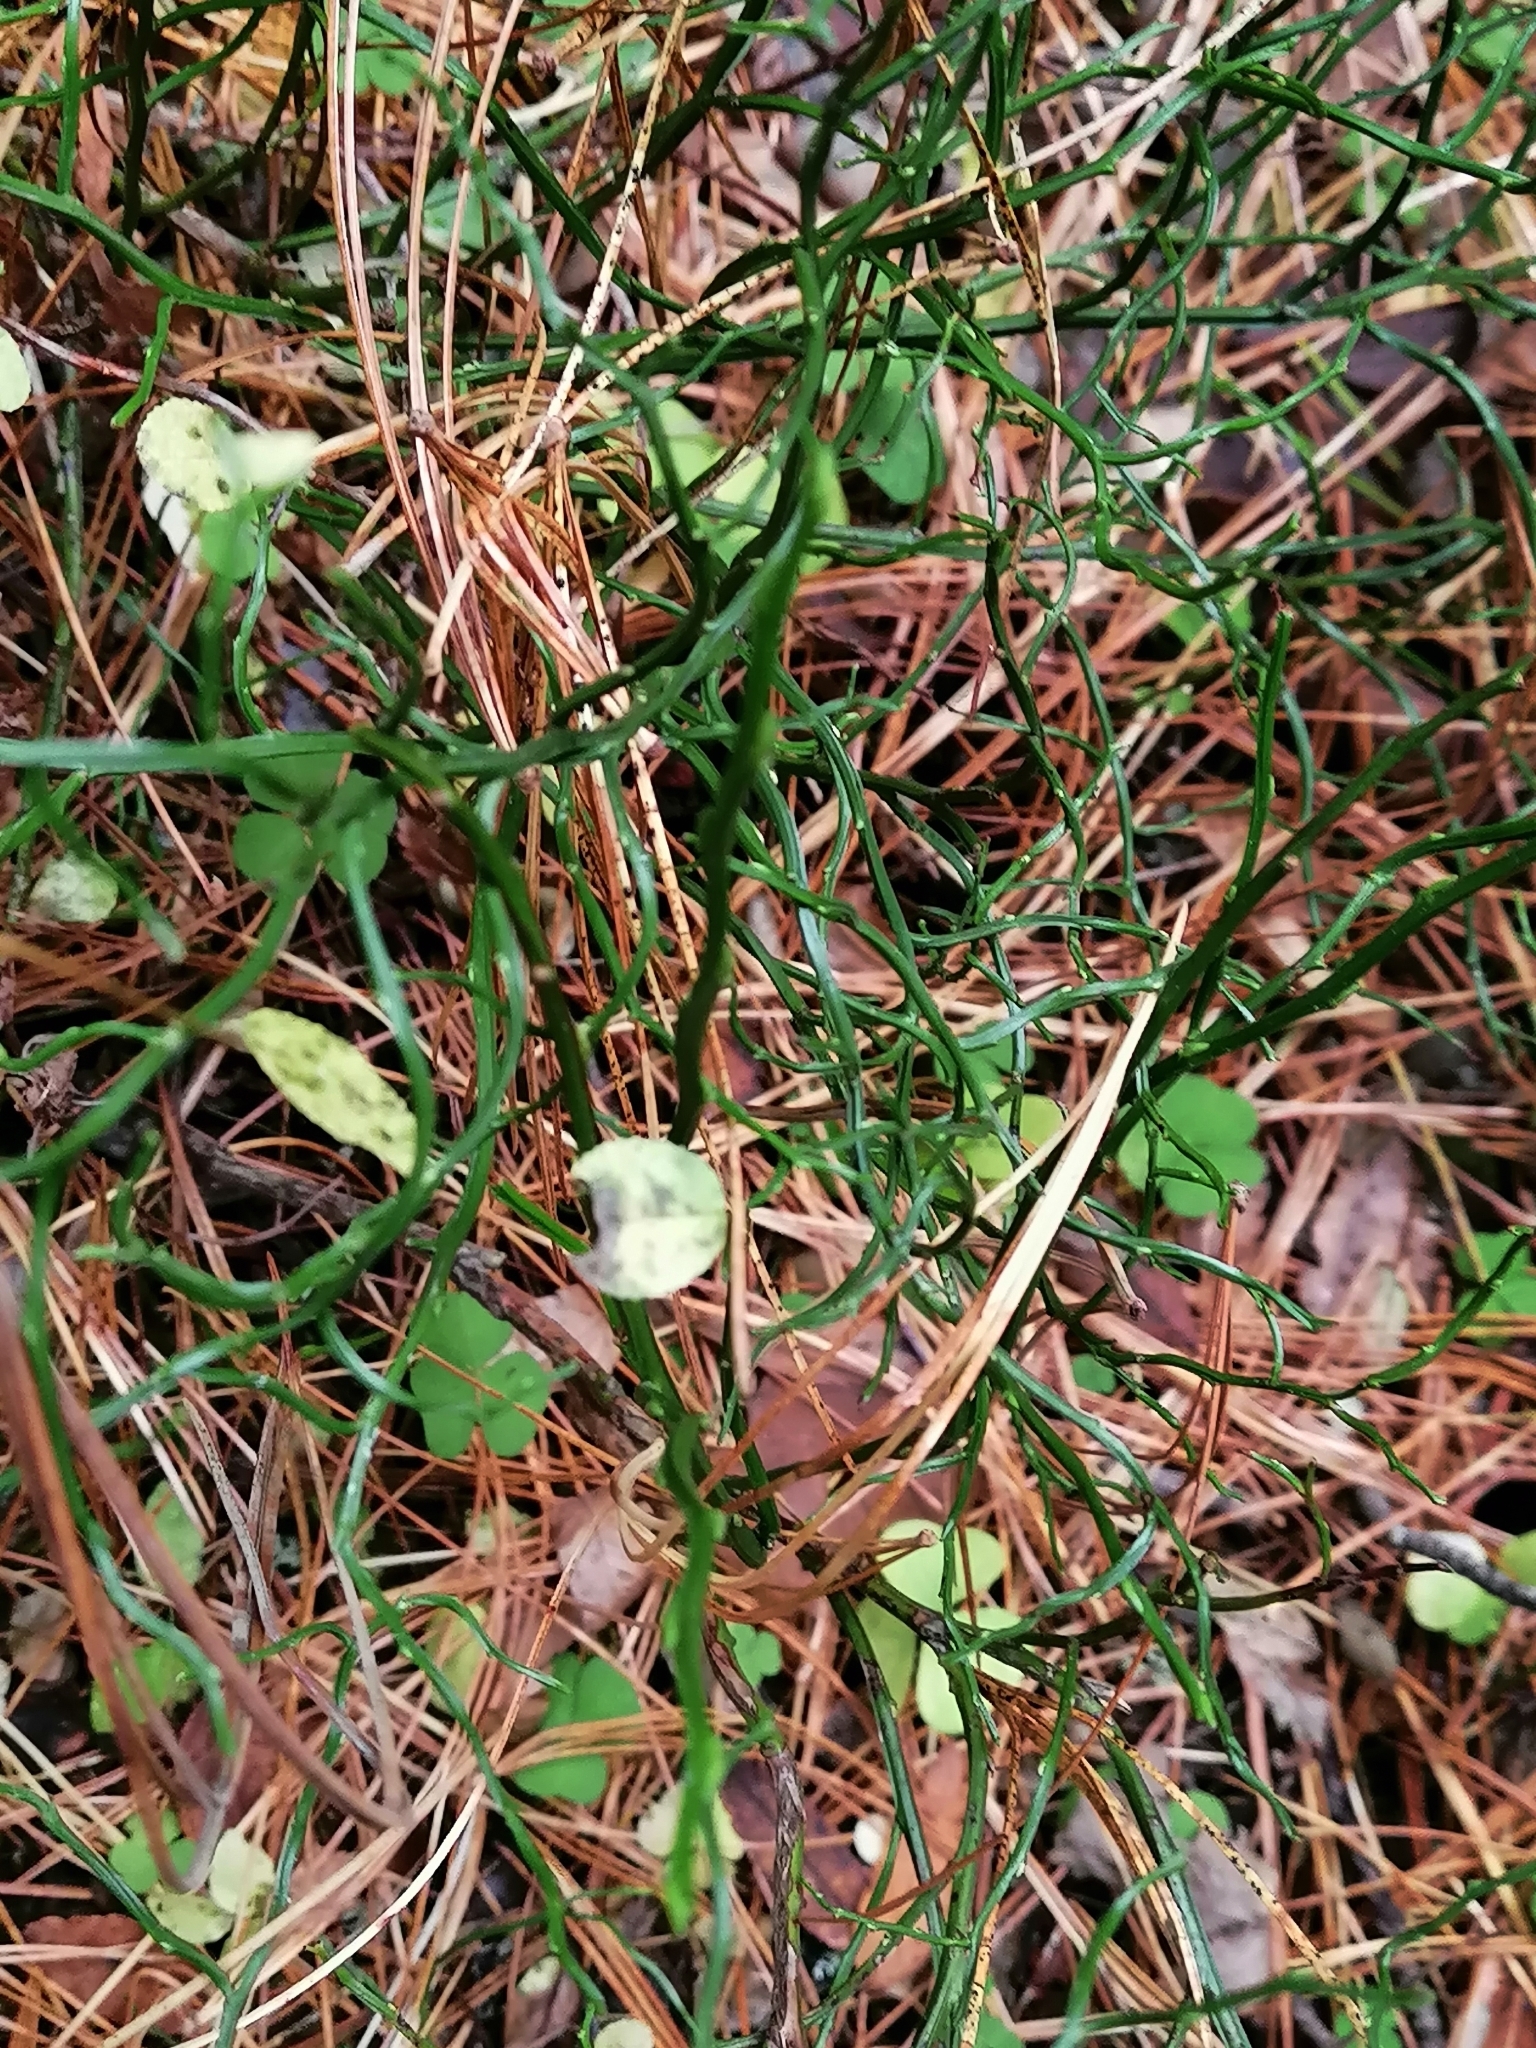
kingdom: Plantae
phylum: Tracheophyta
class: Magnoliopsida
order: Ericales
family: Ericaceae
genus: Vaccinium
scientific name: Vaccinium myrtillus
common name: Bilberry
